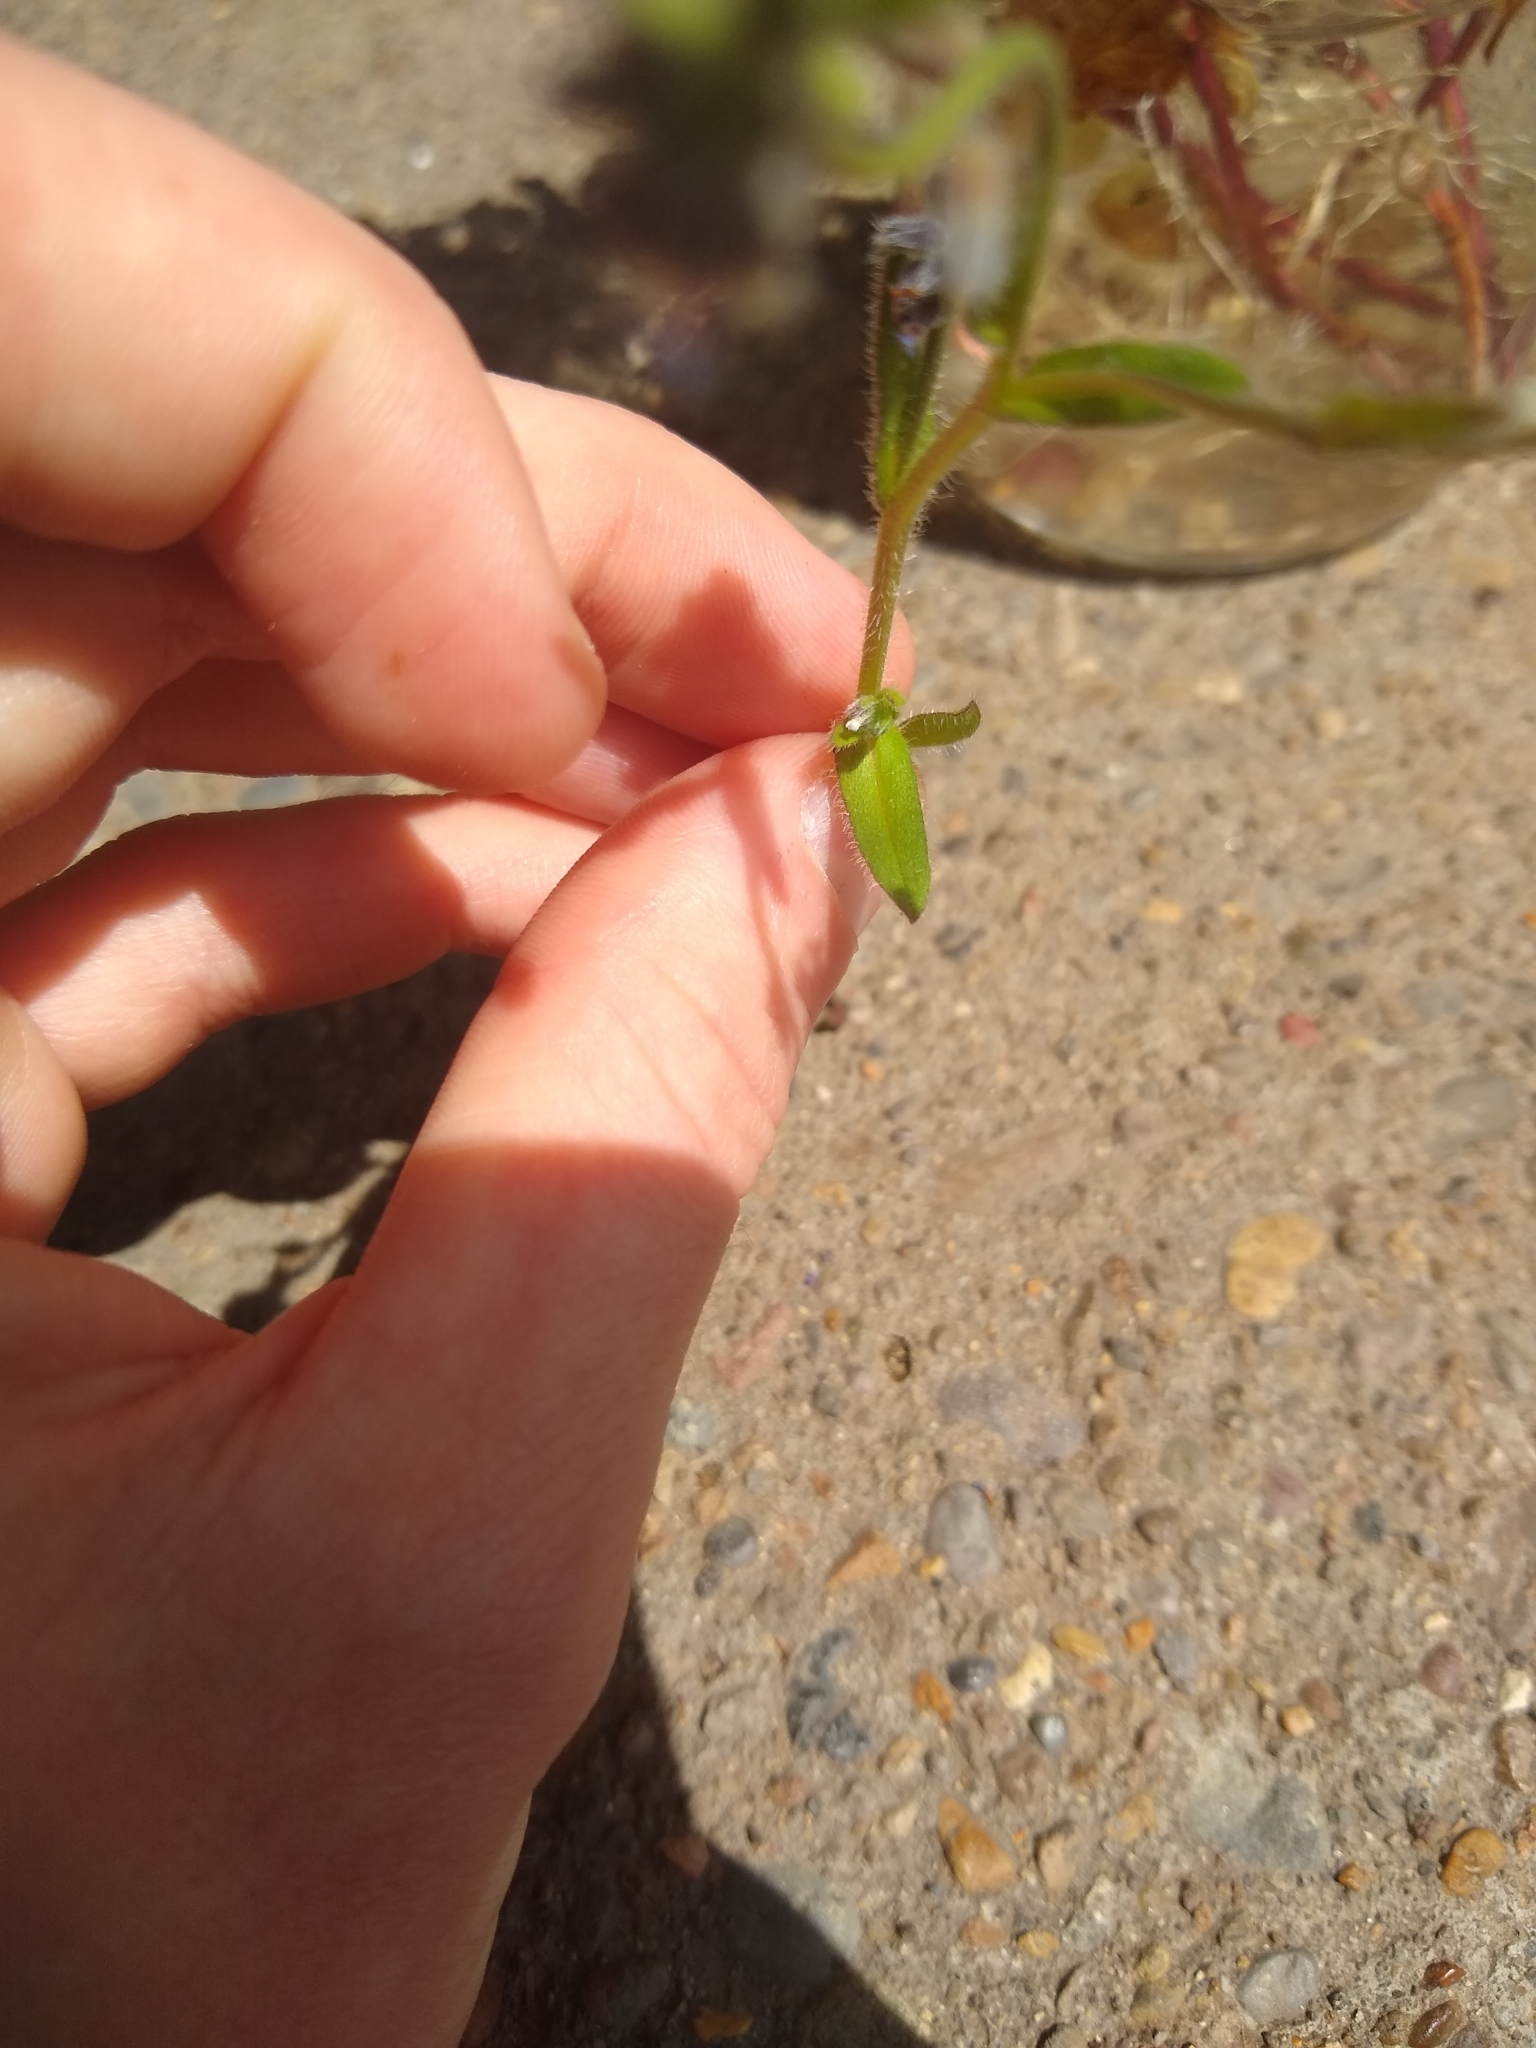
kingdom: Plantae
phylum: Tracheophyta
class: Magnoliopsida
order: Boraginales
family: Boraginaceae
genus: Myosotis
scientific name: Myosotis discolor
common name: Changing forget-me-not
